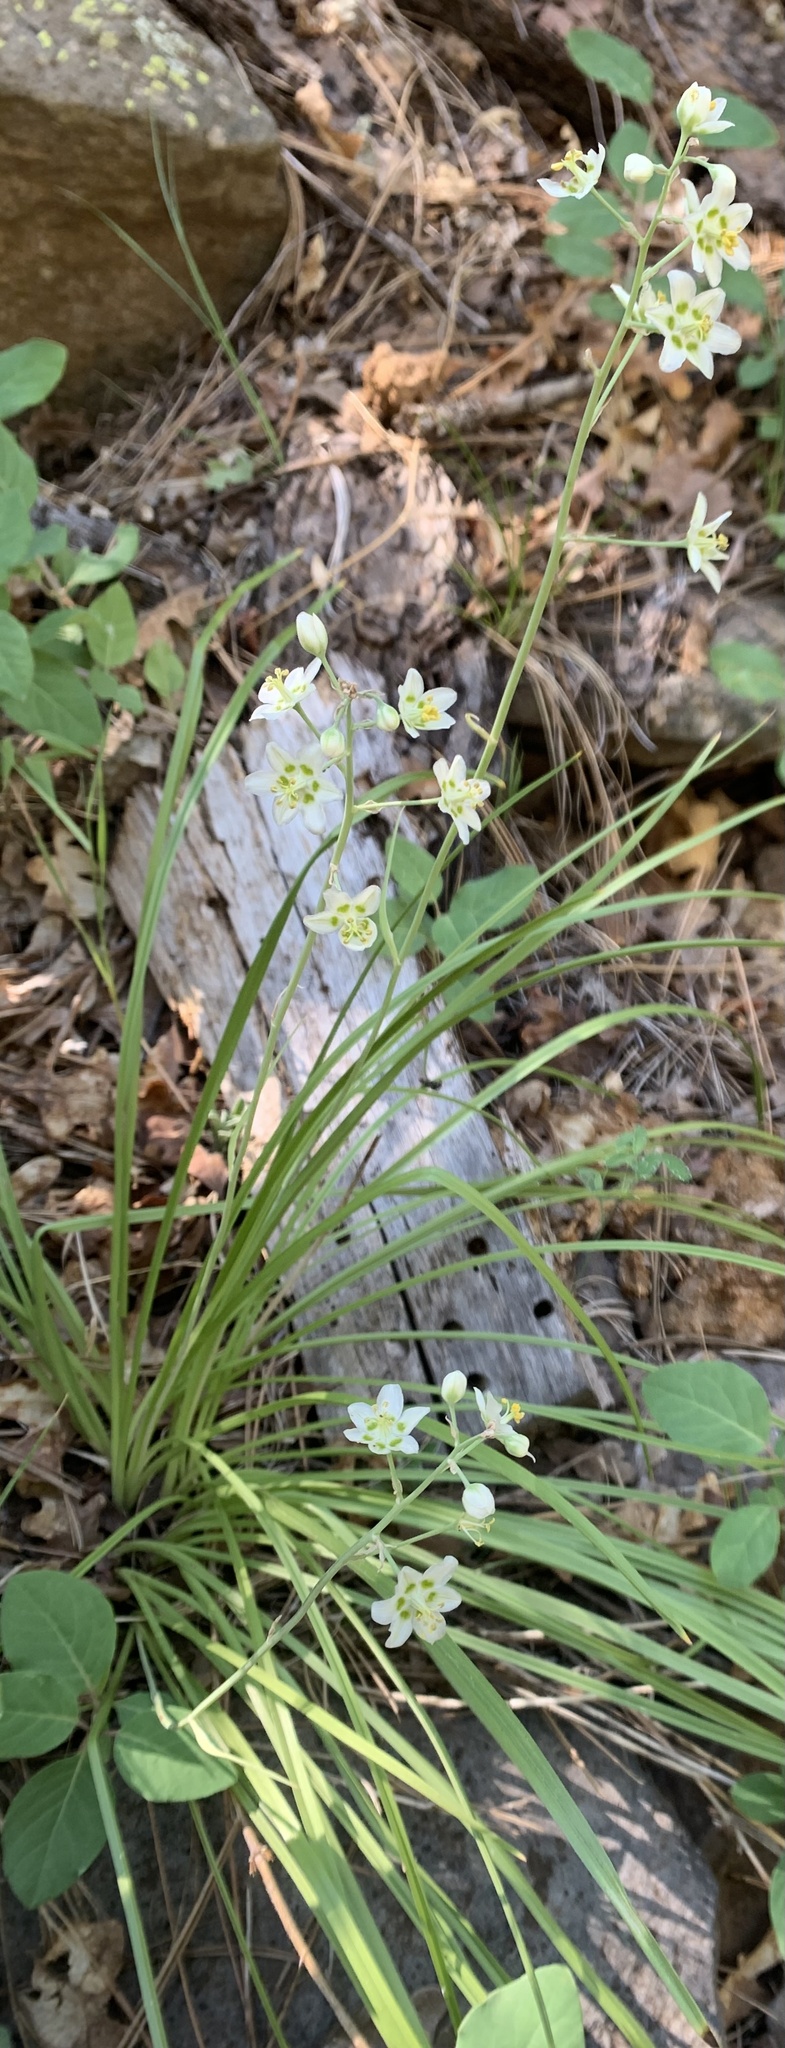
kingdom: Plantae
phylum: Tracheophyta
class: Liliopsida
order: Liliales
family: Melanthiaceae
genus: Anticlea
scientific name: Anticlea elegans
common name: Mountain death camas
